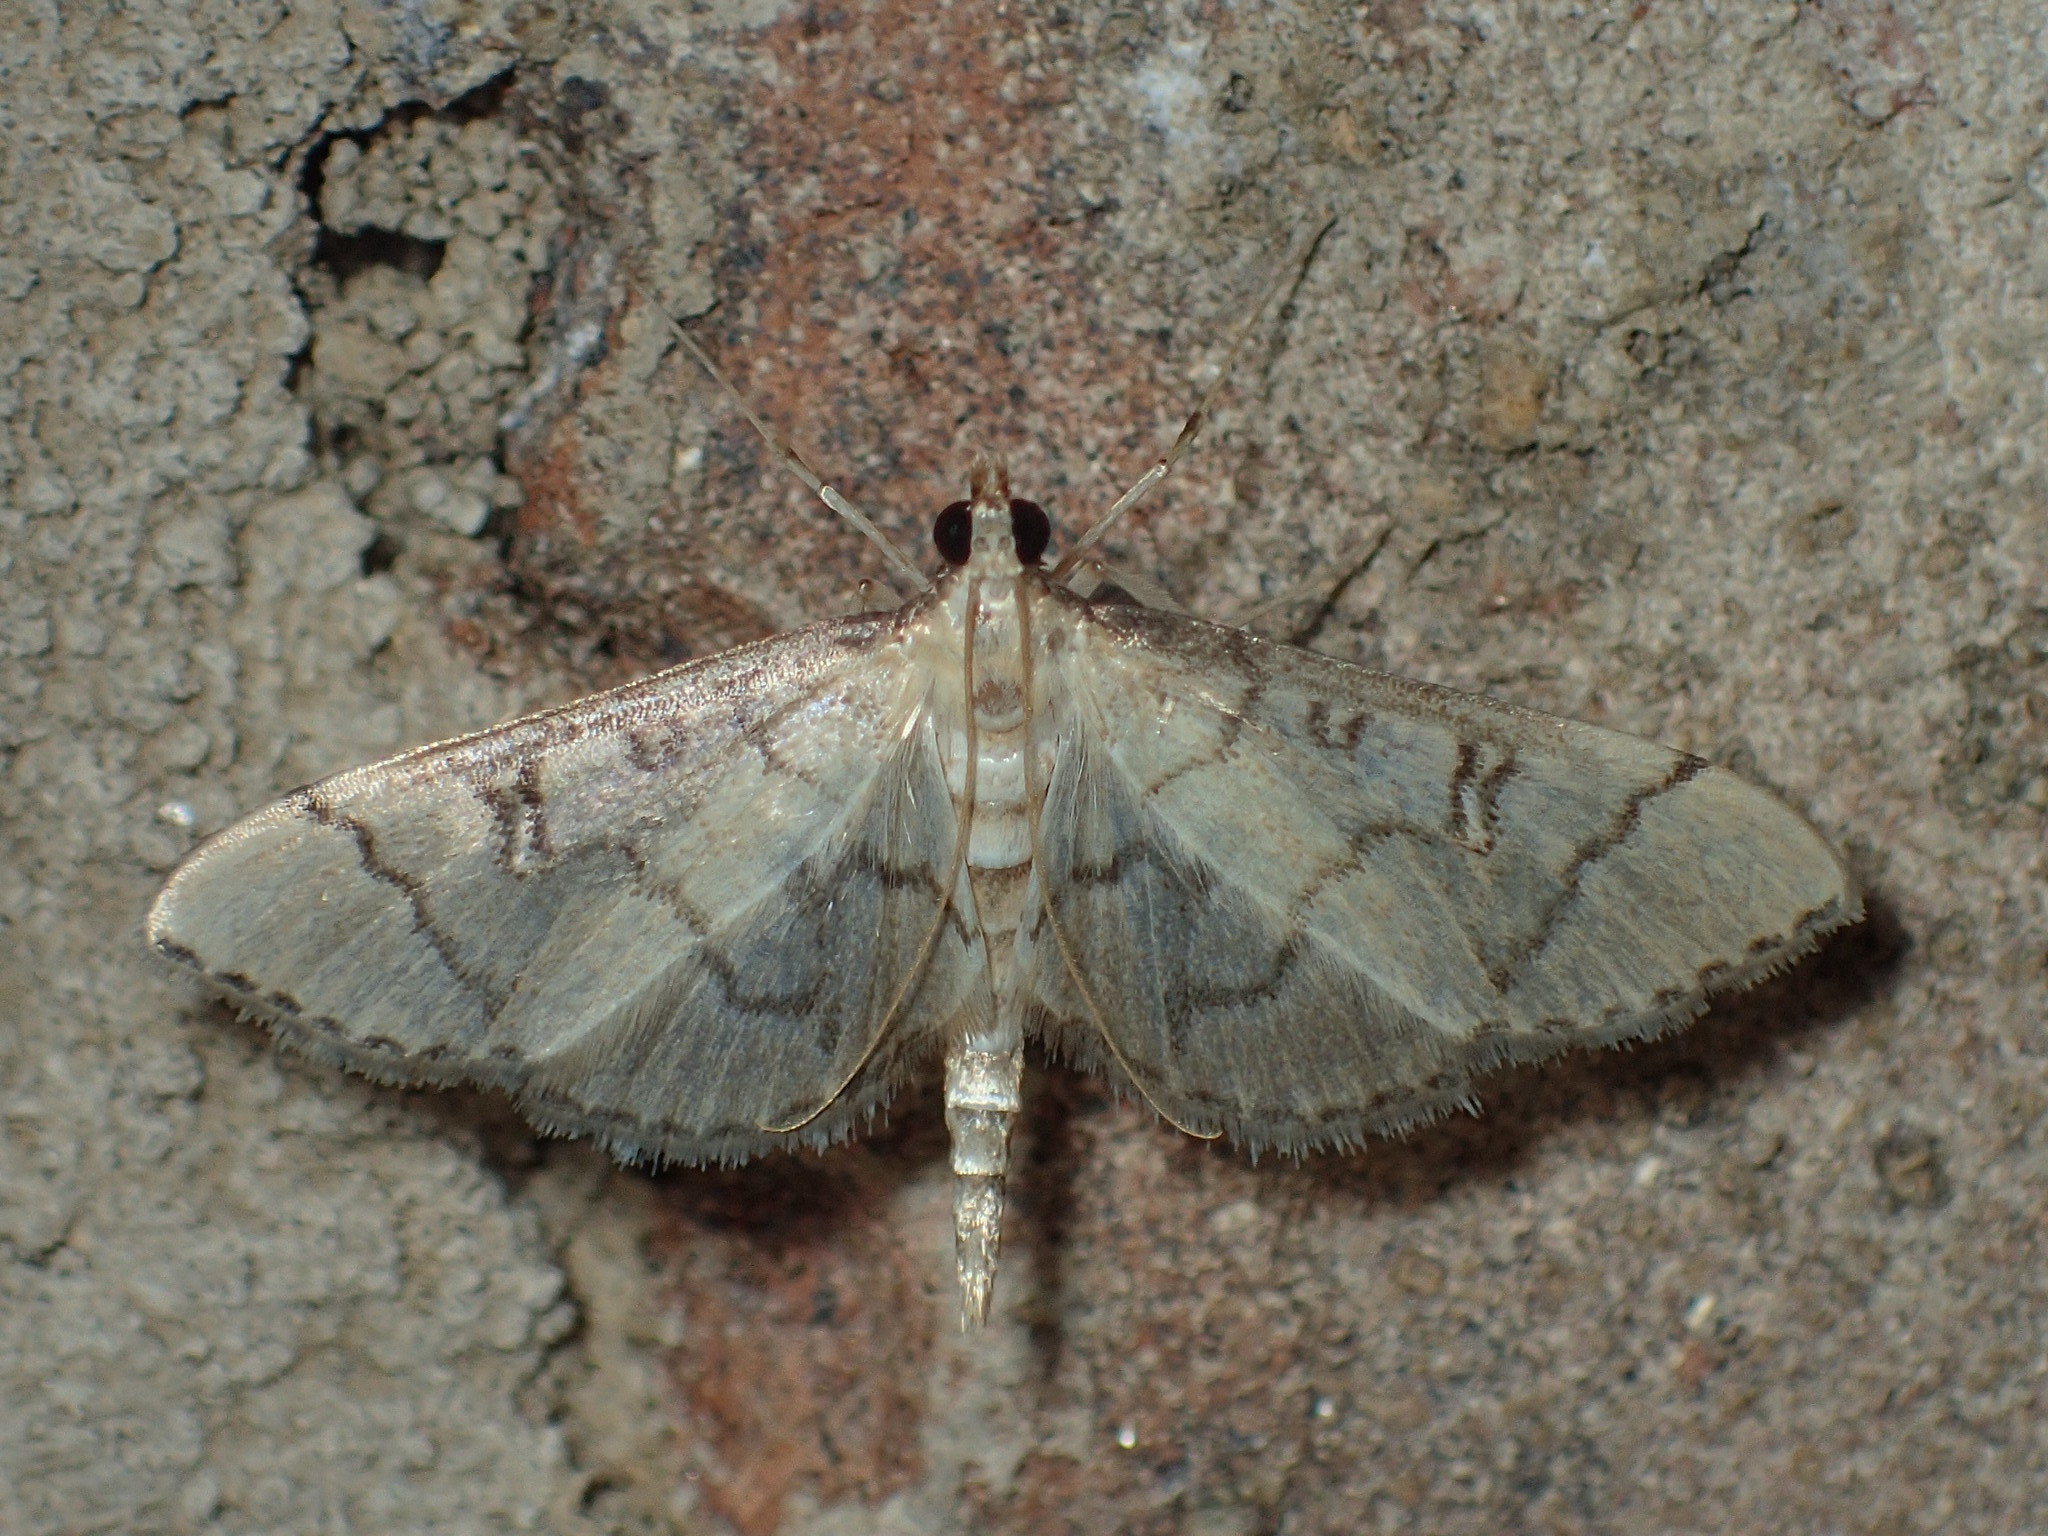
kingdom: Animalia
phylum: Arthropoda
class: Insecta
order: Lepidoptera
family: Crambidae
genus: Lamprosema
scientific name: Lamprosema Blepharomastix ranalis
